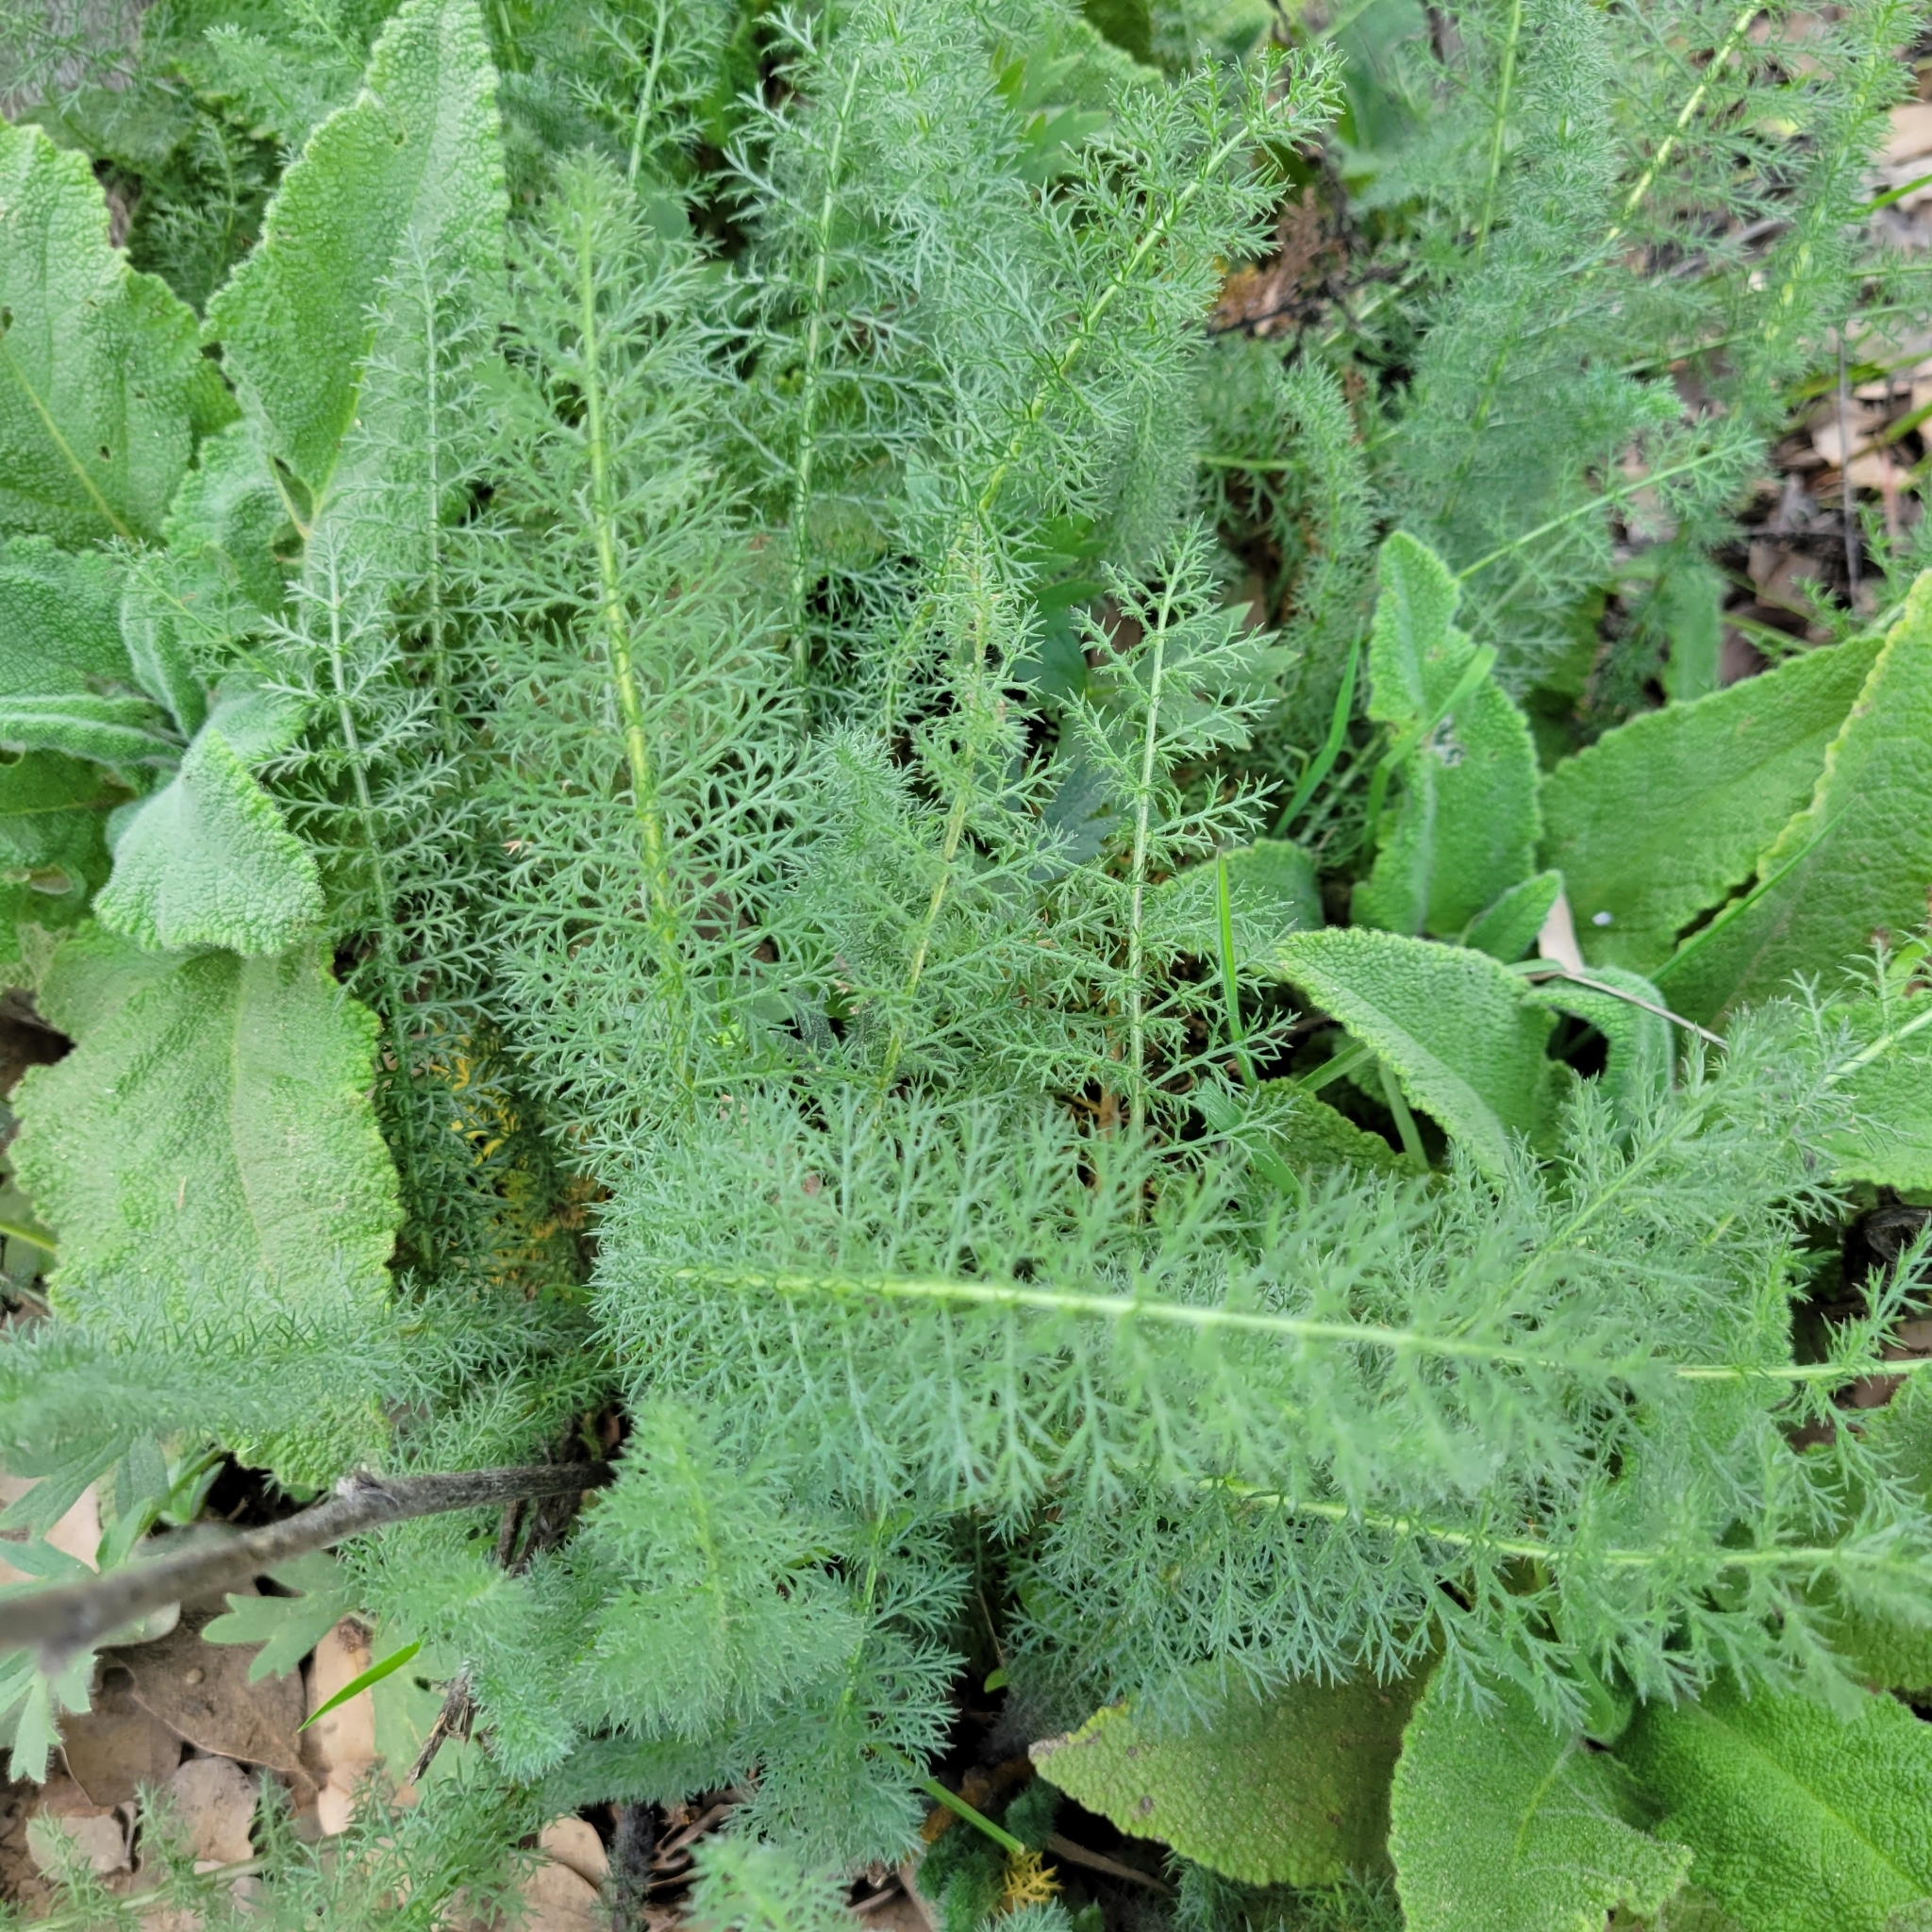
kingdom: Plantae
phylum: Tracheophyta
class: Magnoliopsida
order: Asterales
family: Asteraceae
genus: Achillea
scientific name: Achillea millefolium
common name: Yarrow
